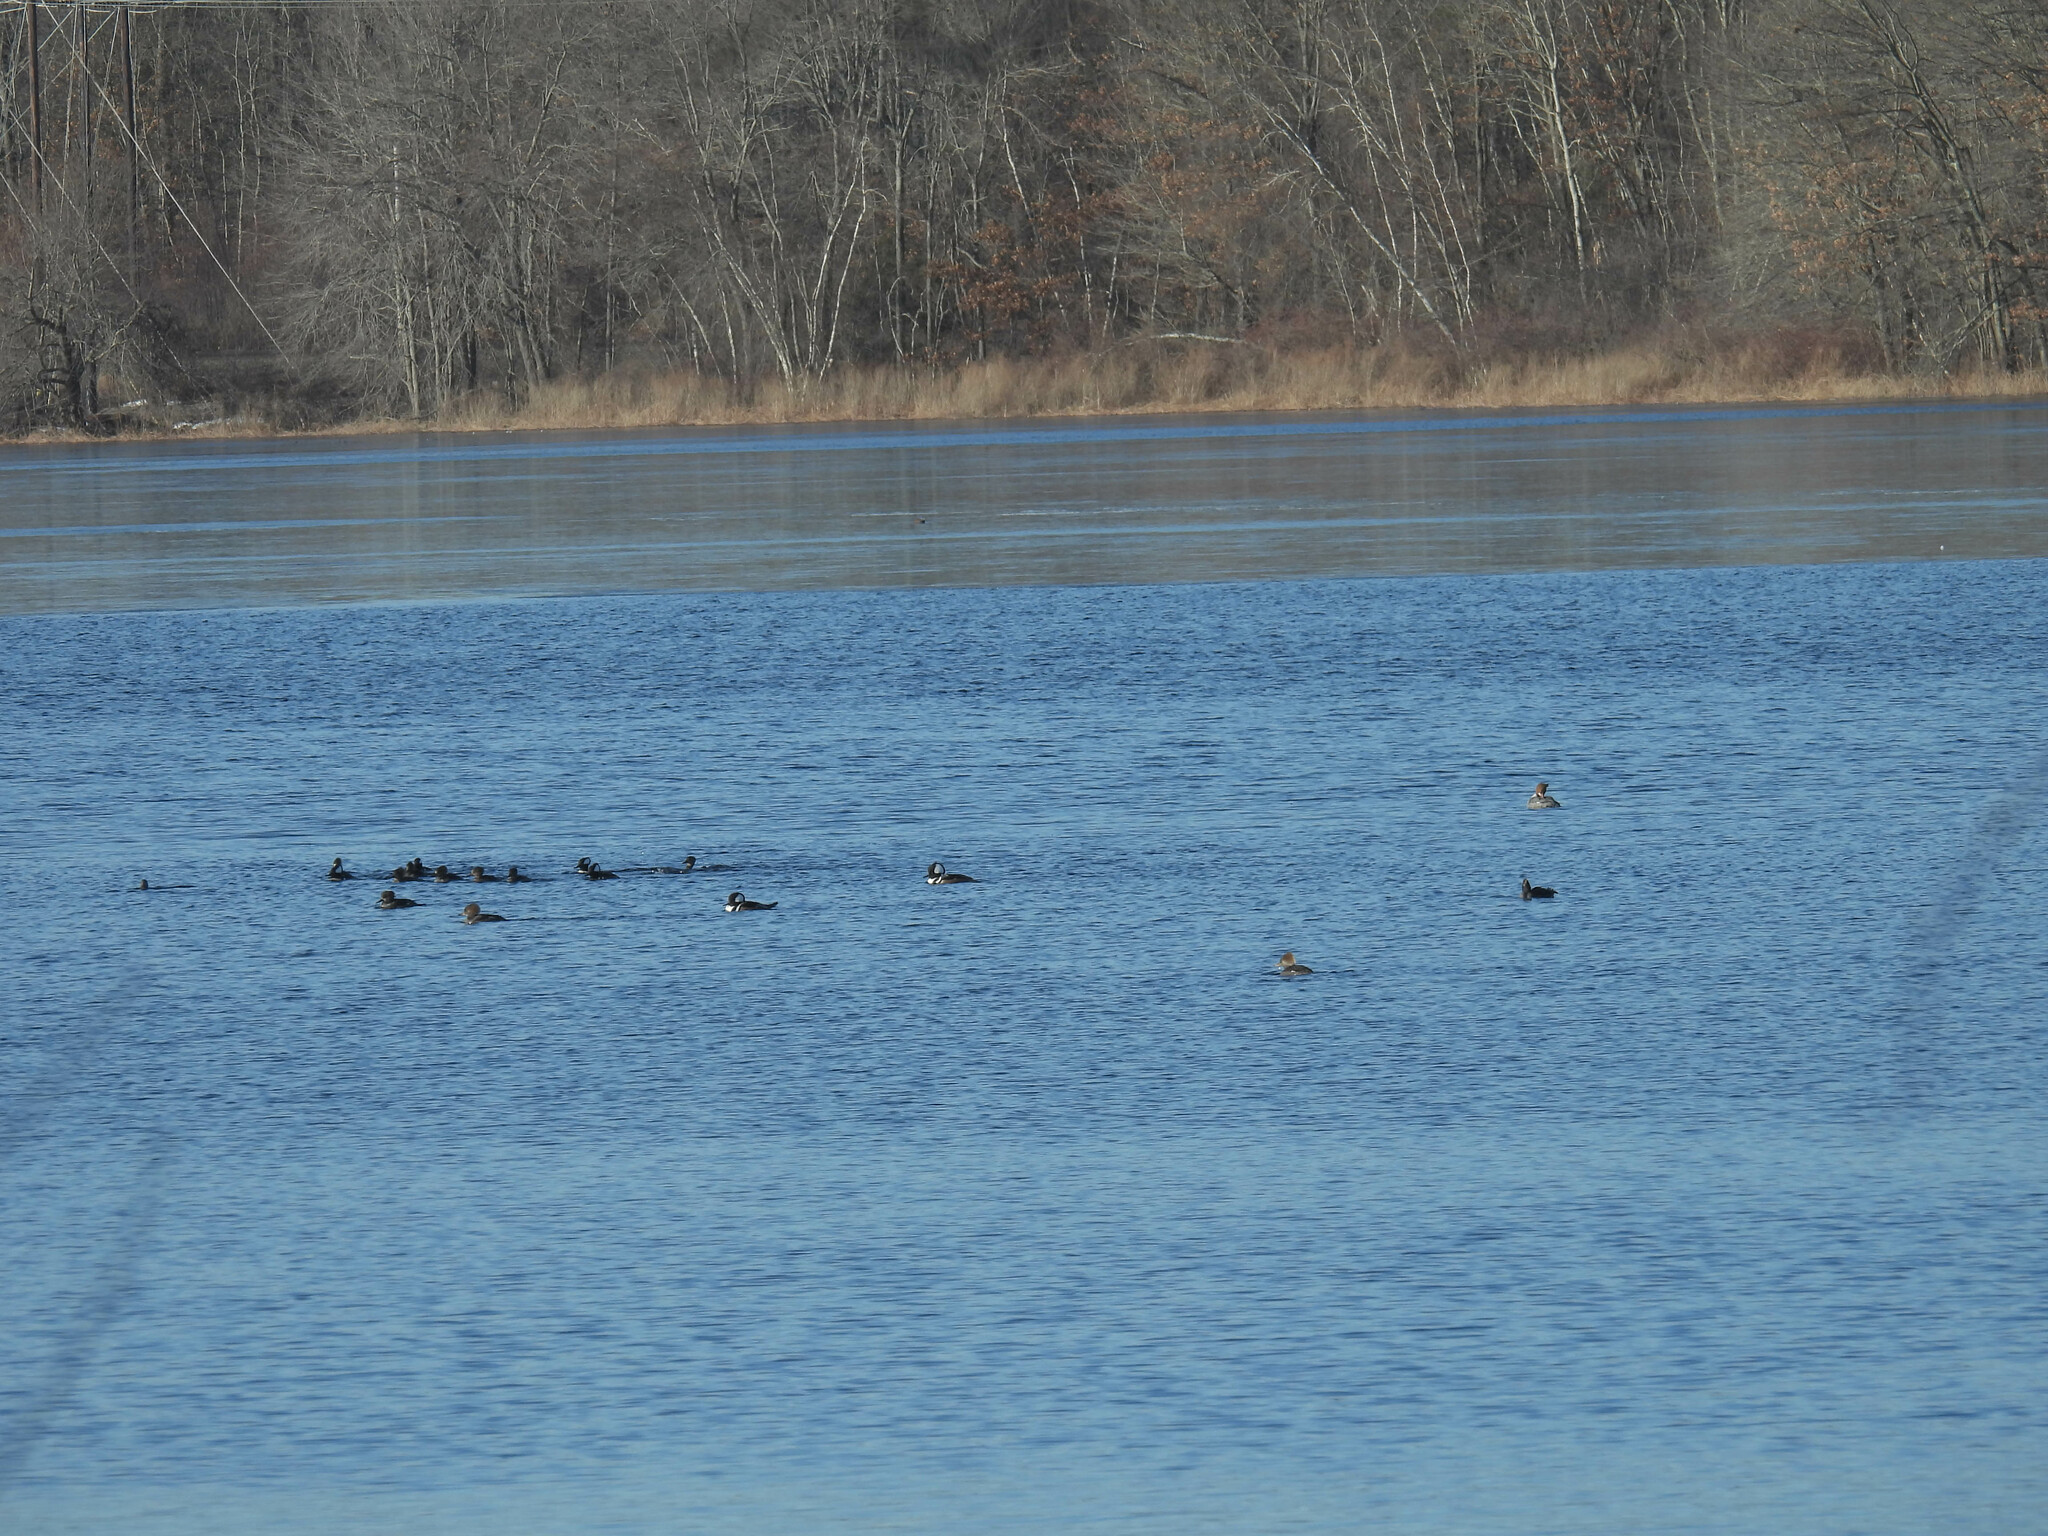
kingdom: Animalia
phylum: Chordata
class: Aves
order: Anseriformes
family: Anatidae
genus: Lophodytes
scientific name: Lophodytes cucullatus
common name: Hooded merganser
